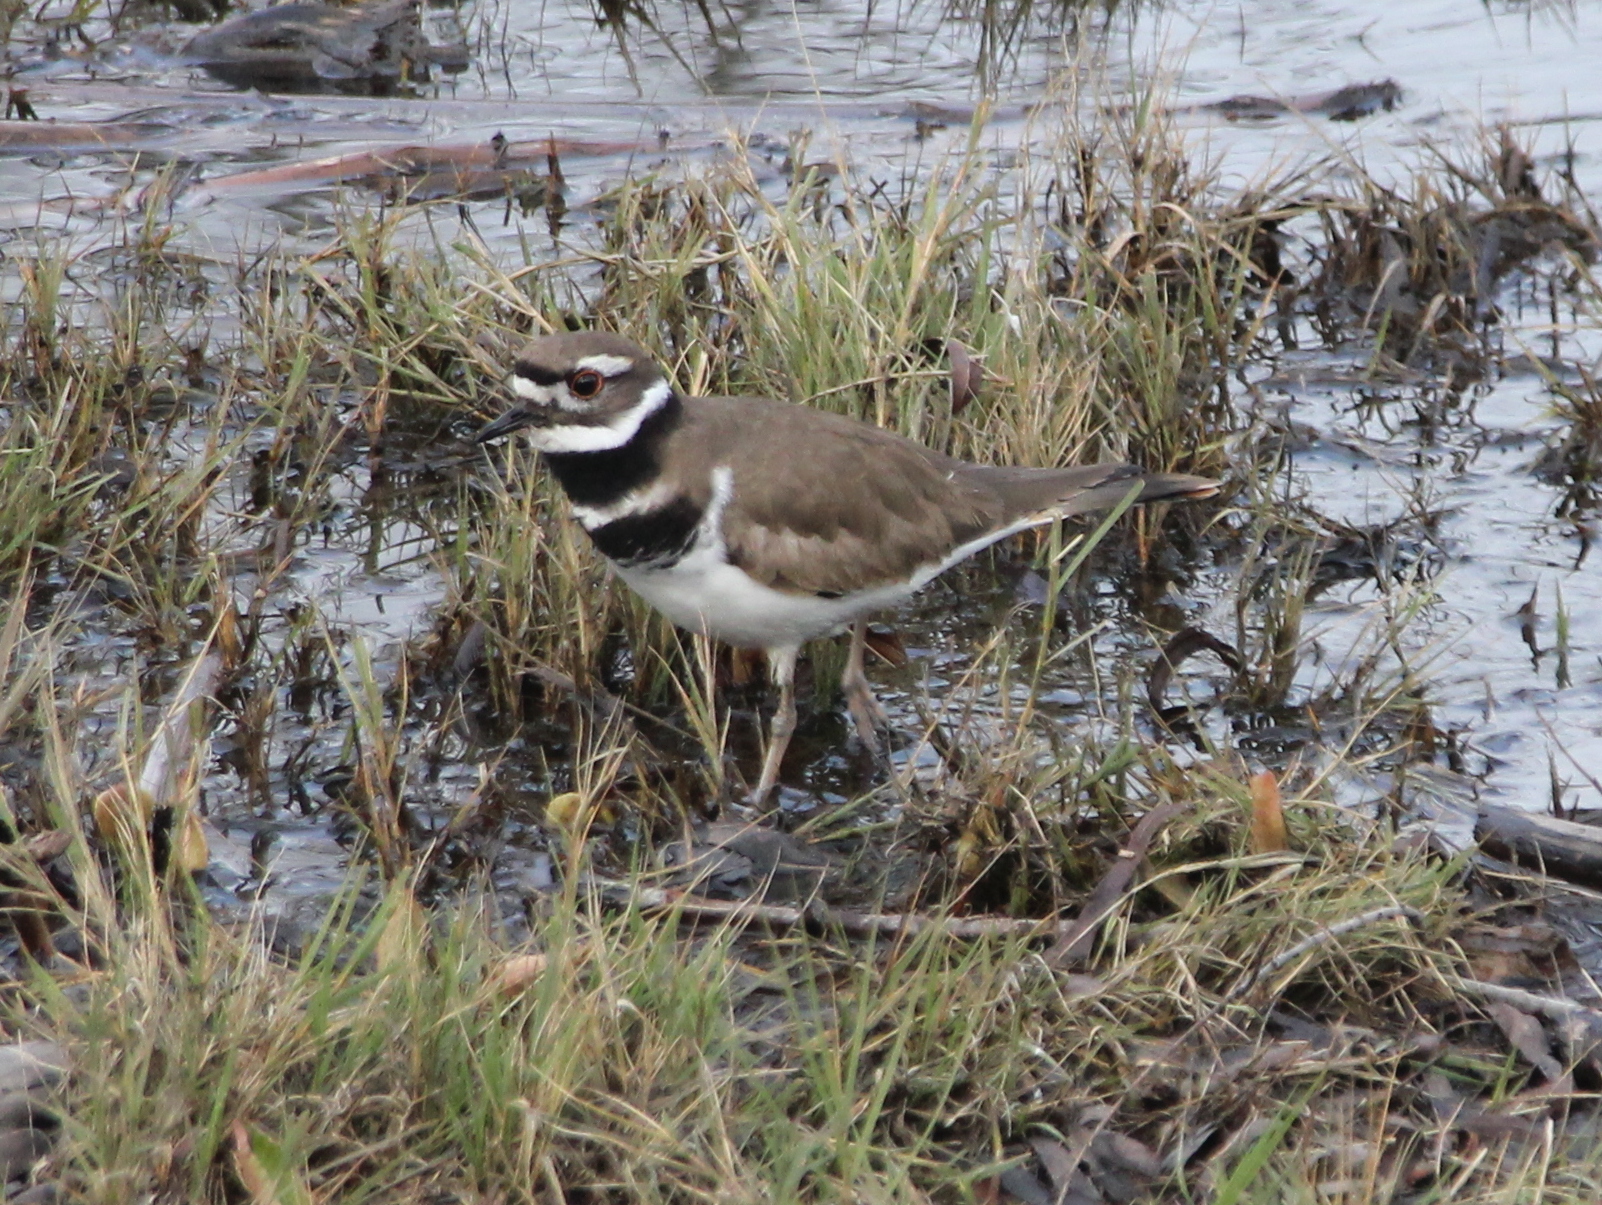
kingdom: Animalia
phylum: Chordata
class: Aves
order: Charadriiformes
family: Charadriidae
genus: Charadrius
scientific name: Charadrius vociferus
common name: Killdeer
